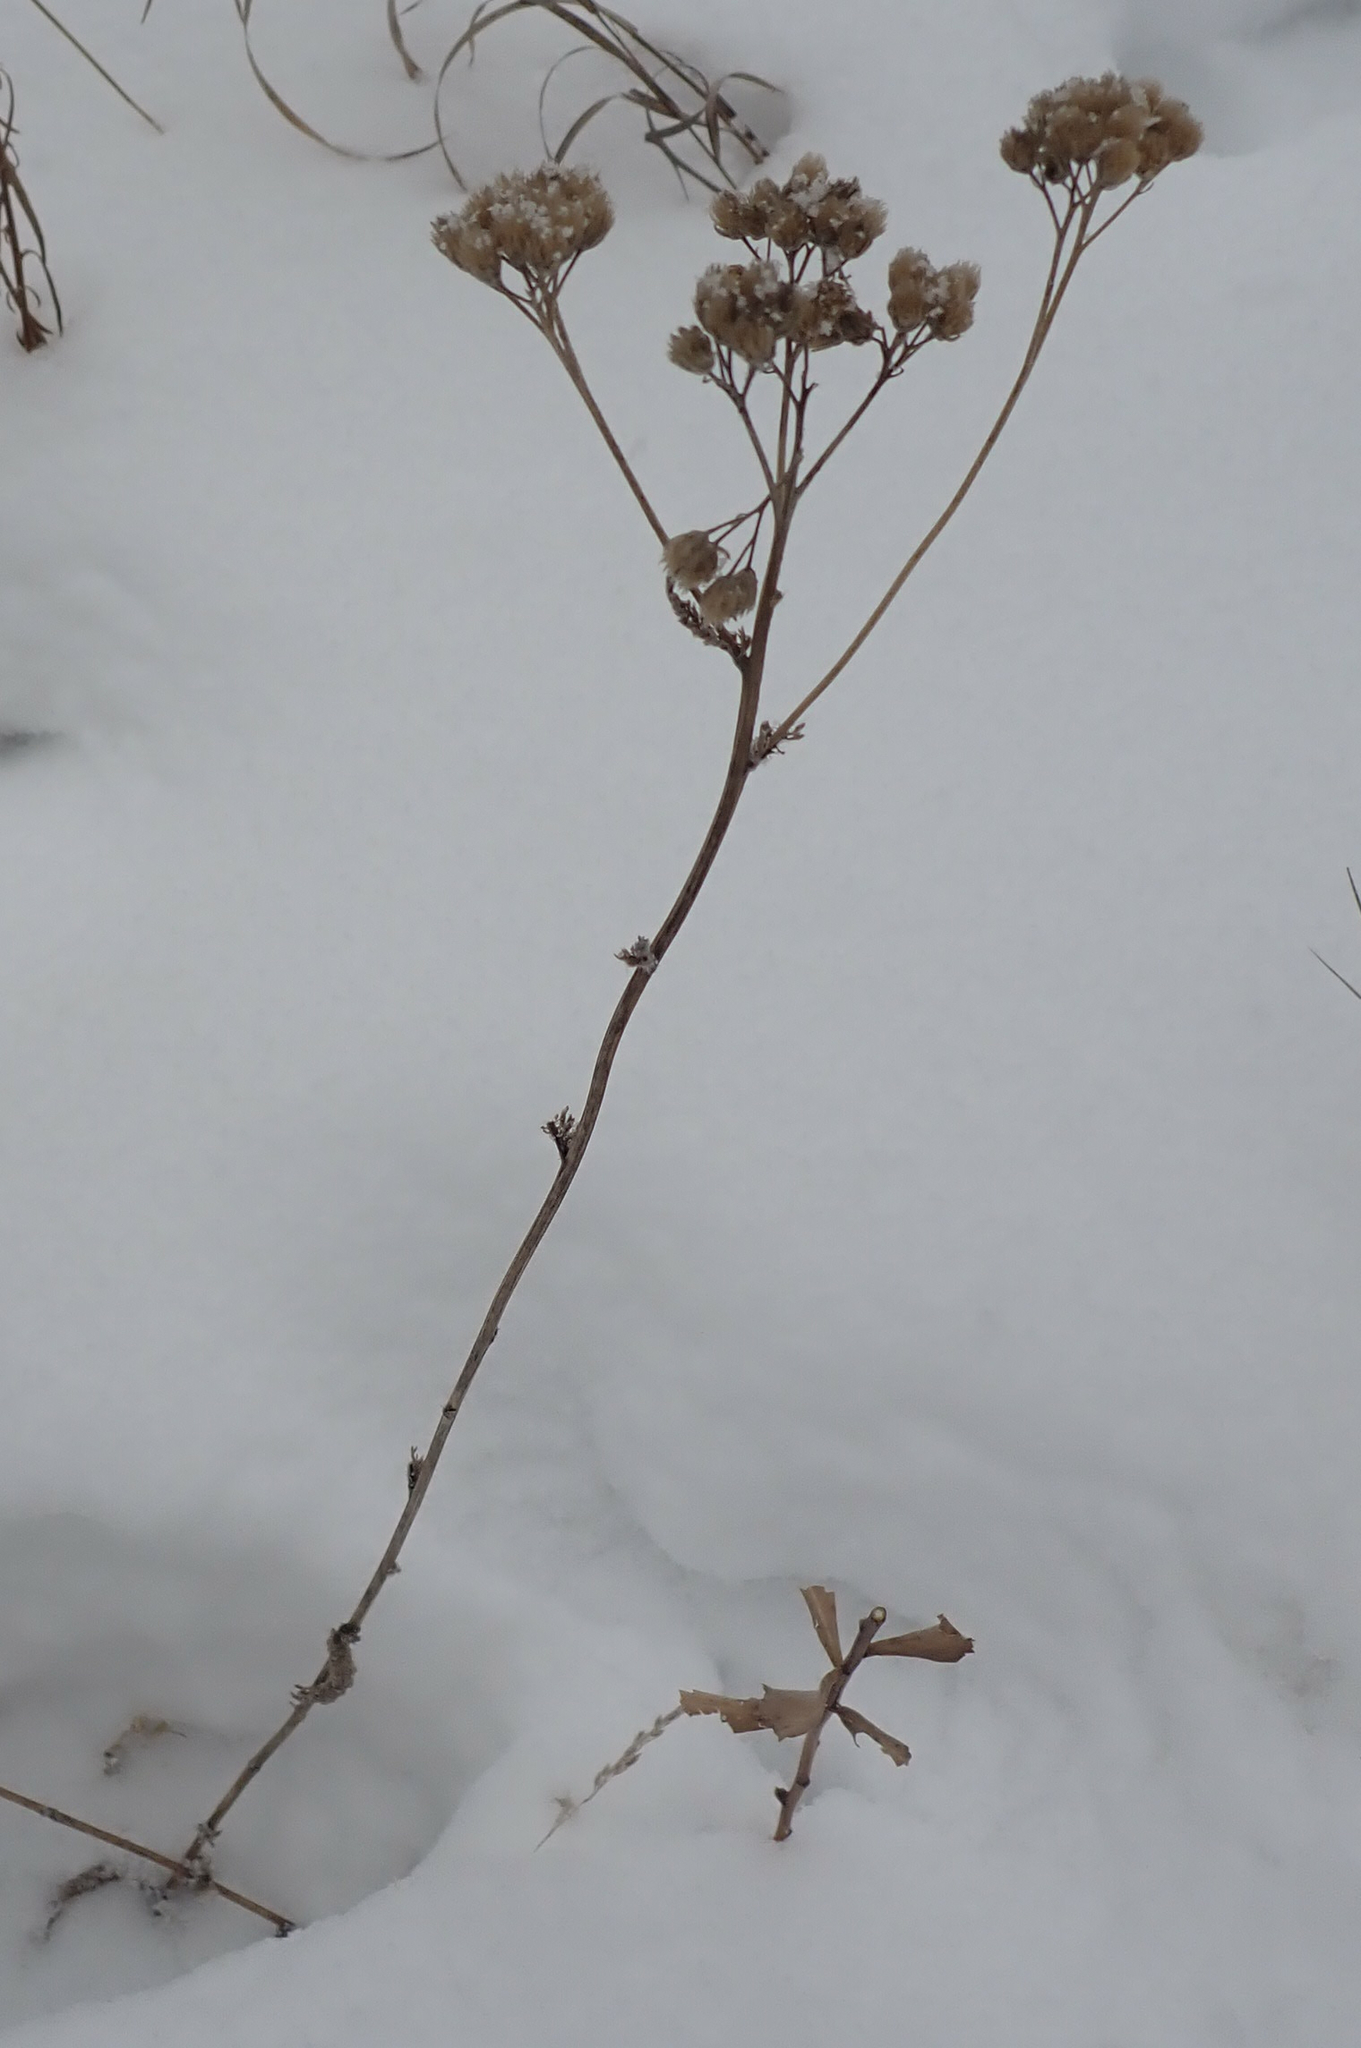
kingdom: Plantae
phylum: Tracheophyta
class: Magnoliopsida
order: Asterales
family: Asteraceae
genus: Achillea
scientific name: Achillea millefolium
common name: Yarrow
